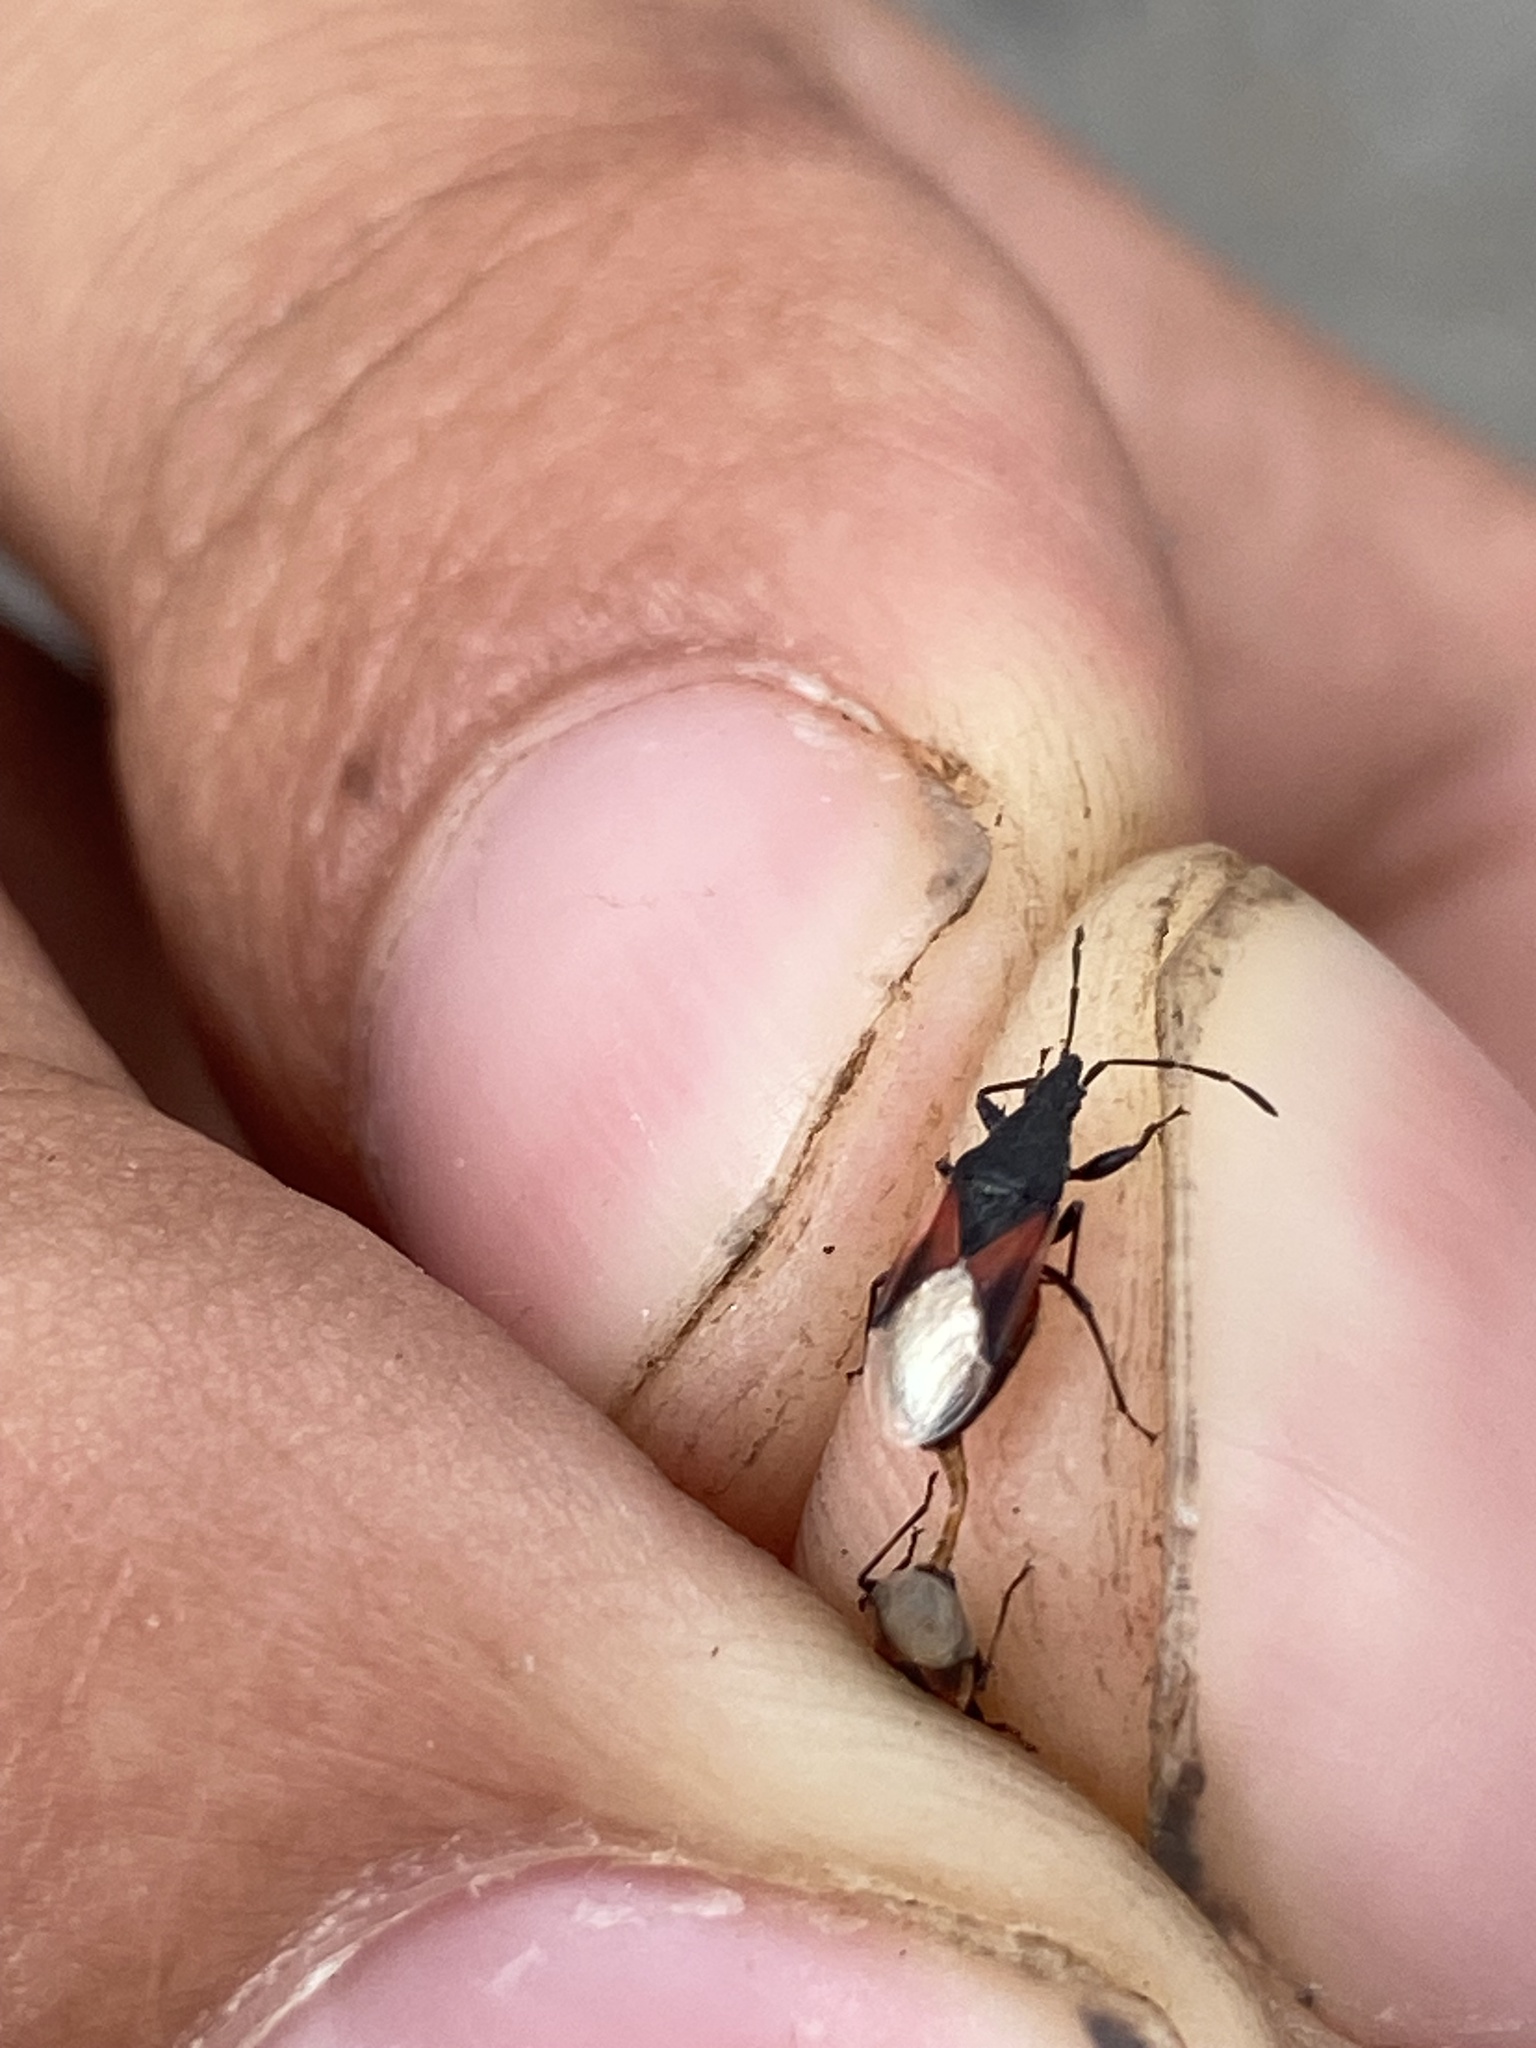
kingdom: Animalia
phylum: Arthropoda
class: Insecta
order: Hemiptera
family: Oxycarenidae
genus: Oxycarenus
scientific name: Oxycarenus lavaterae
